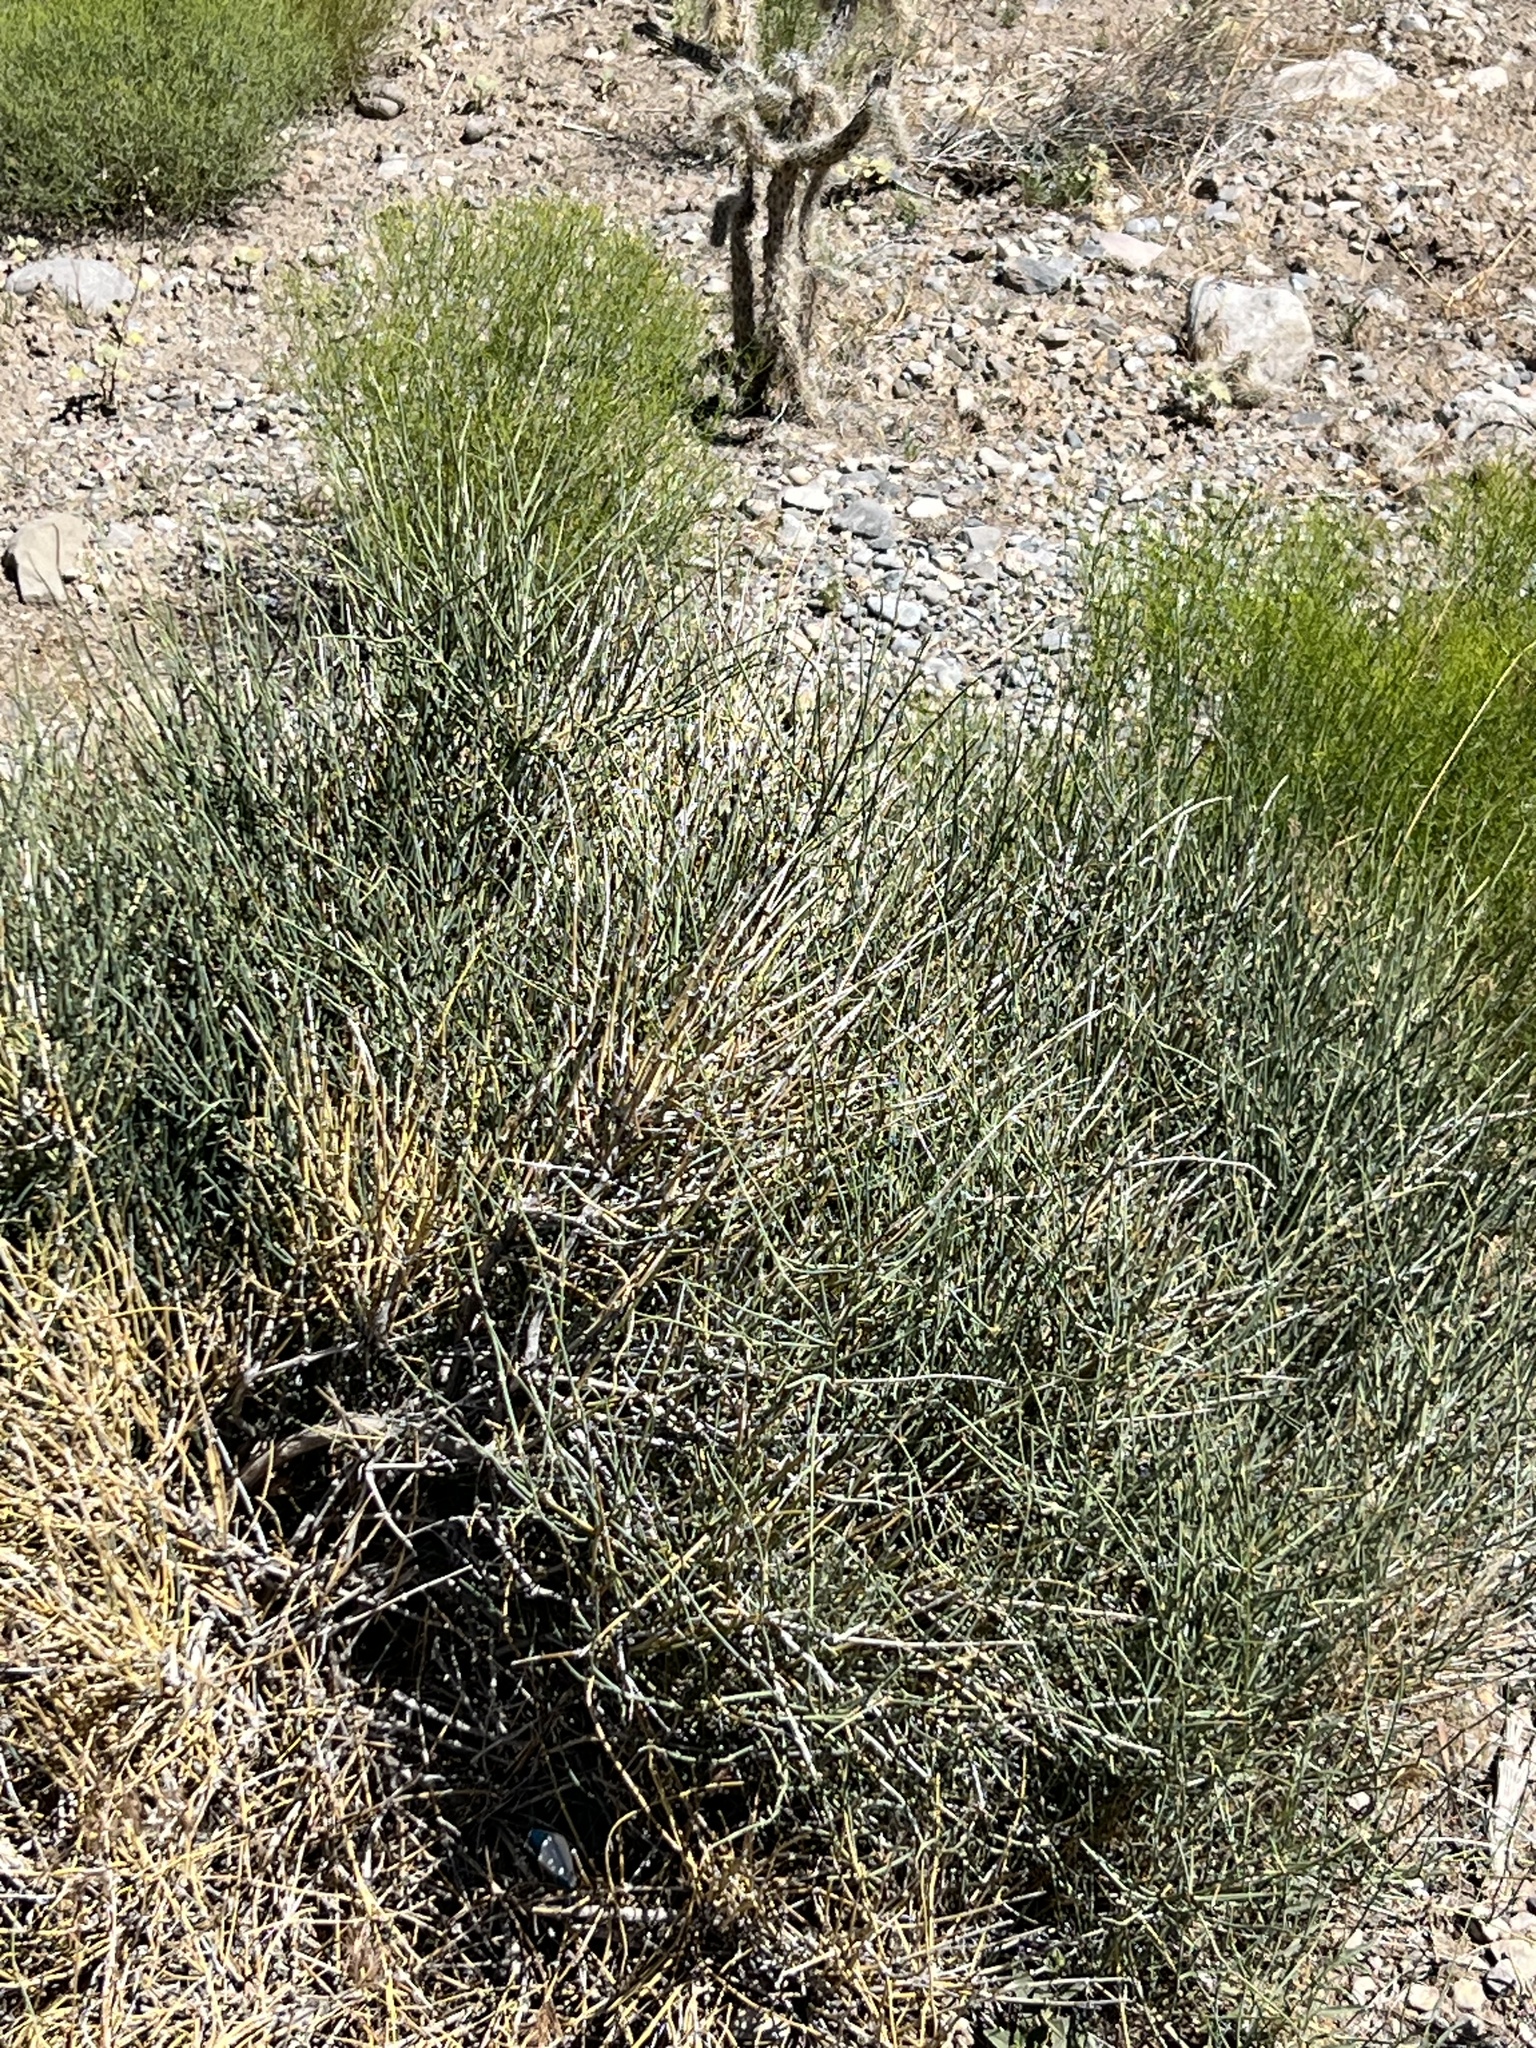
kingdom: Plantae
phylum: Tracheophyta
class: Gnetopsida
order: Ephedrales
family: Ephedraceae
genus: Ephedra
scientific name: Ephedra nevadensis
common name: Gray ephedra
